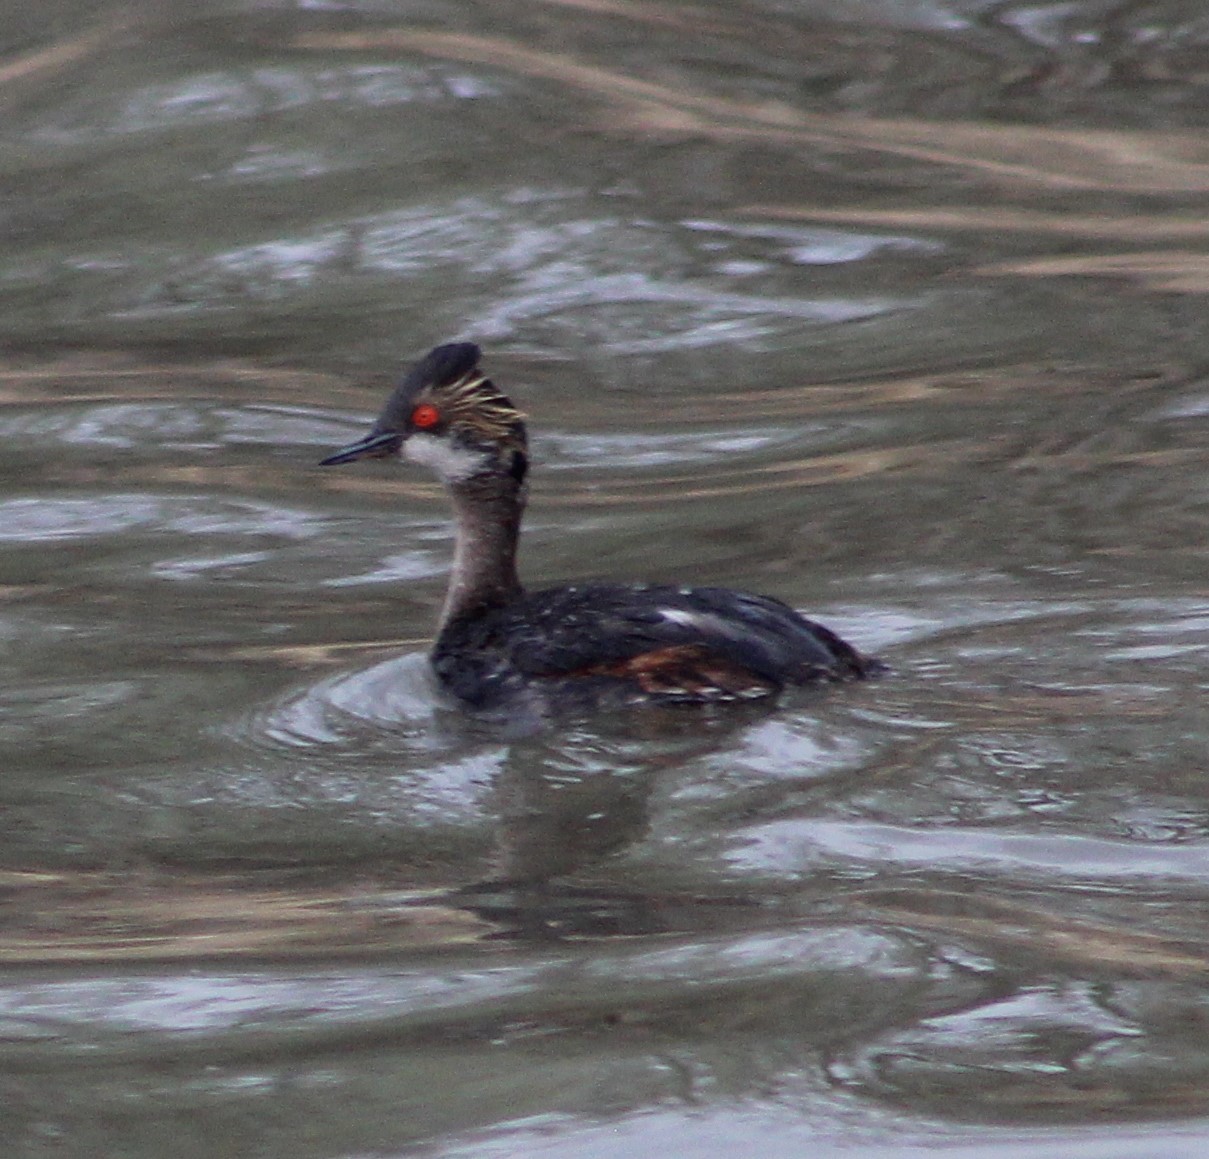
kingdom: Animalia
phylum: Chordata
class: Aves
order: Podicipediformes
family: Podicipedidae
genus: Podiceps
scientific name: Podiceps nigricollis
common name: Black-necked grebe
